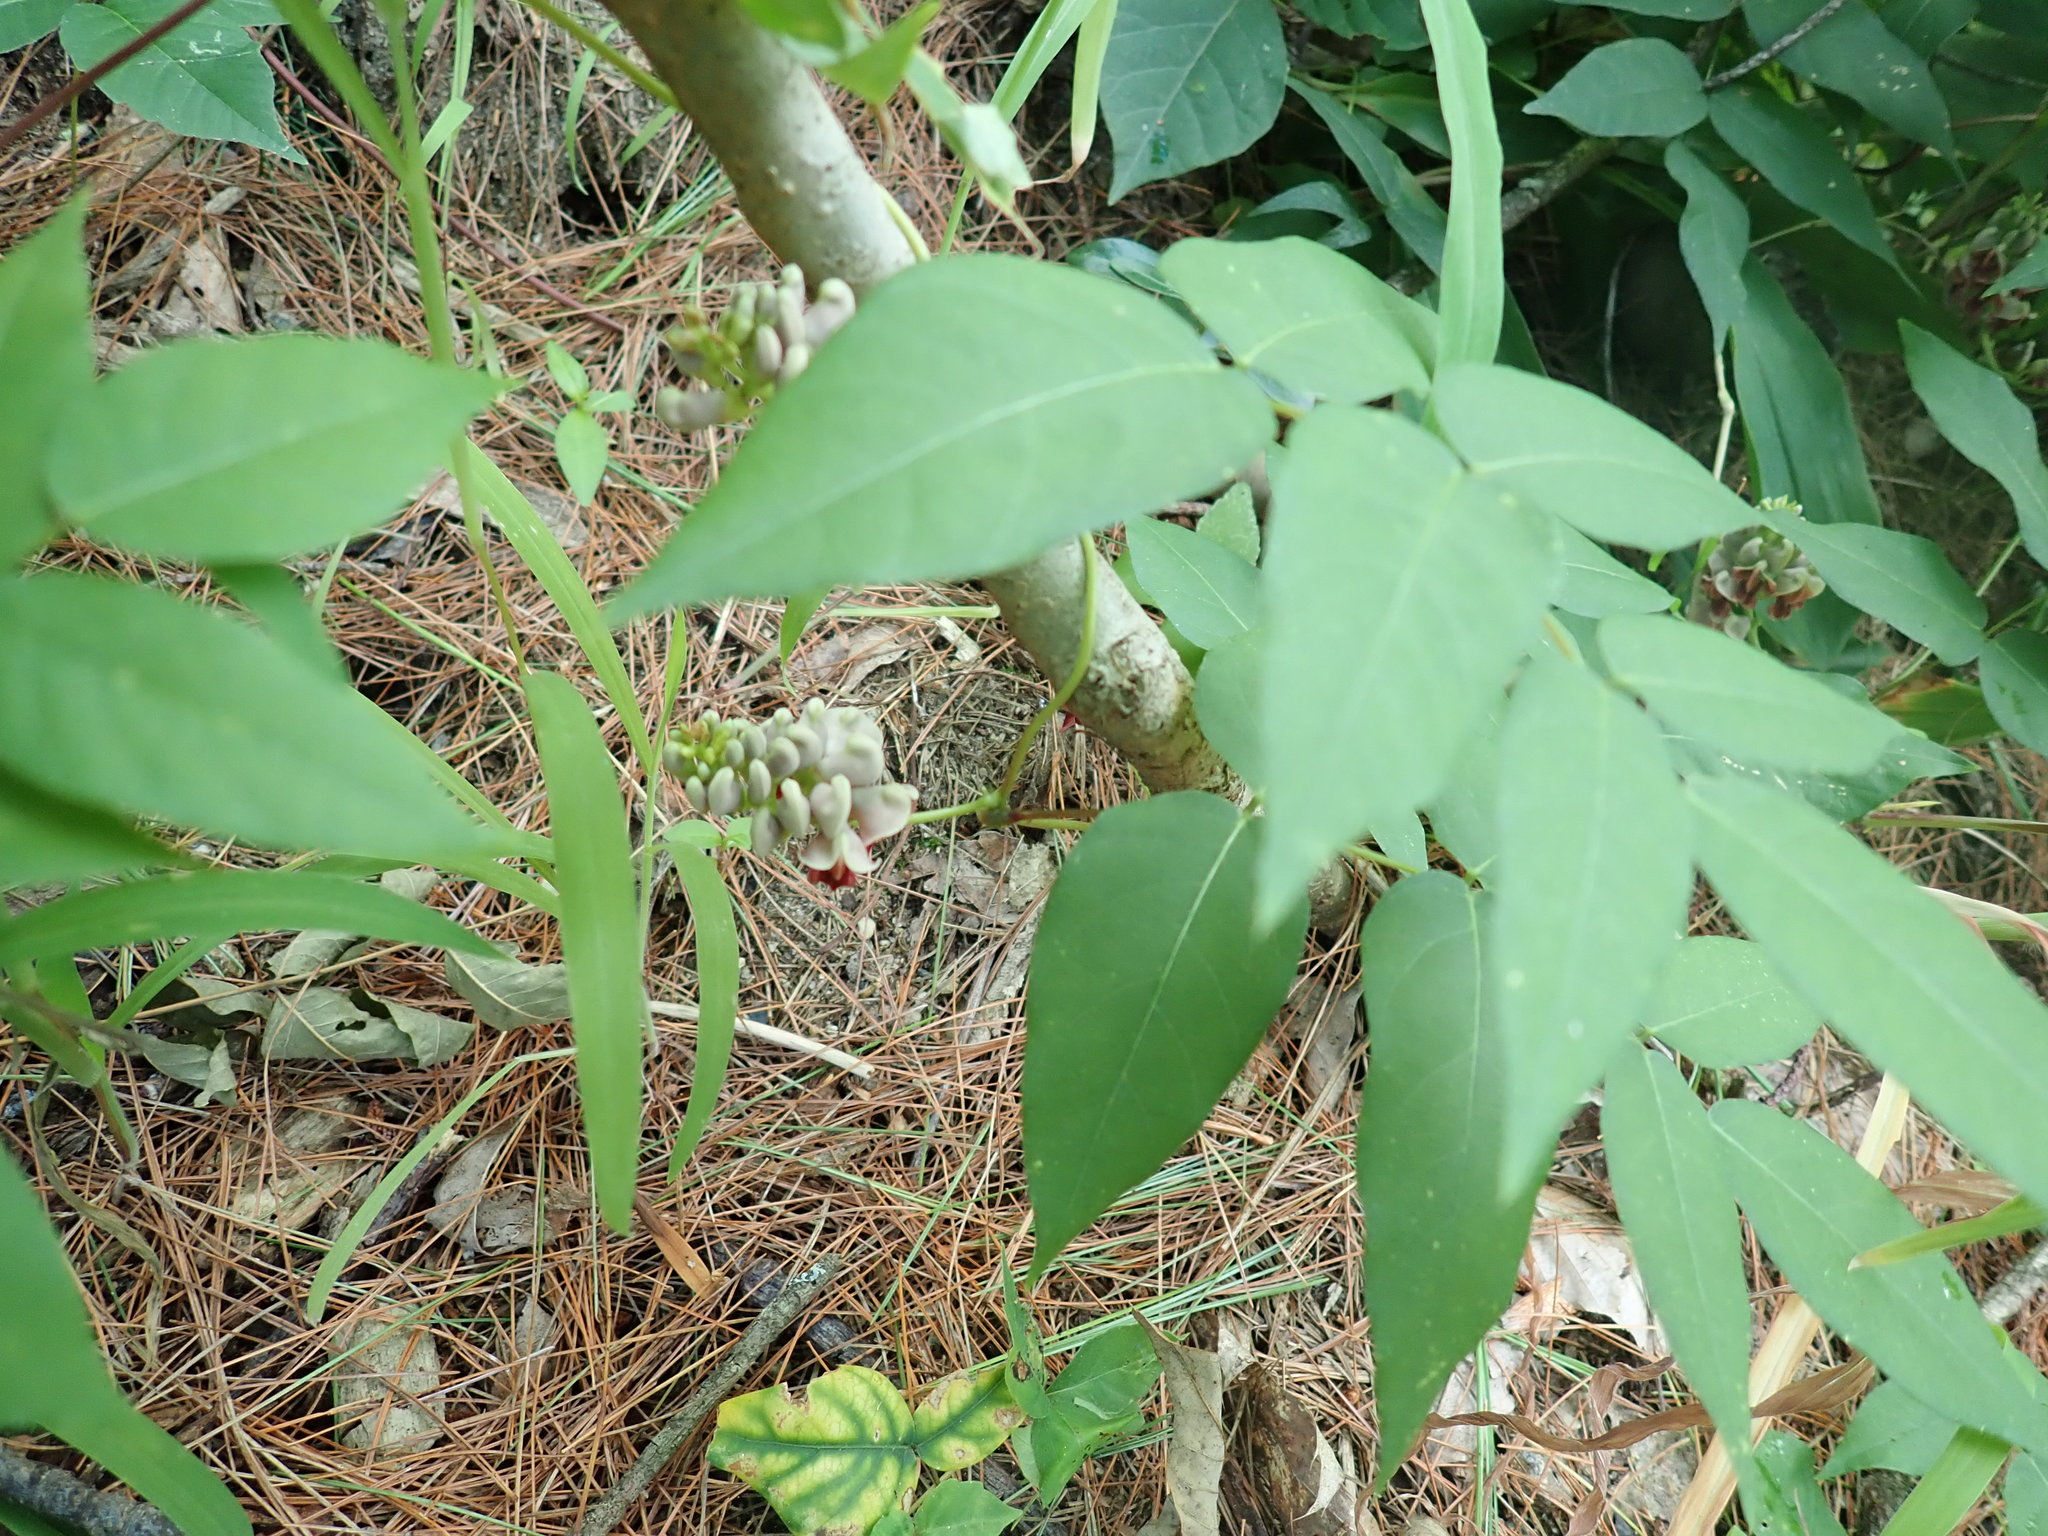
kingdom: Plantae
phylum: Tracheophyta
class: Magnoliopsida
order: Fabales
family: Fabaceae
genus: Apios
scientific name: Apios americana
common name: American potato-bean
